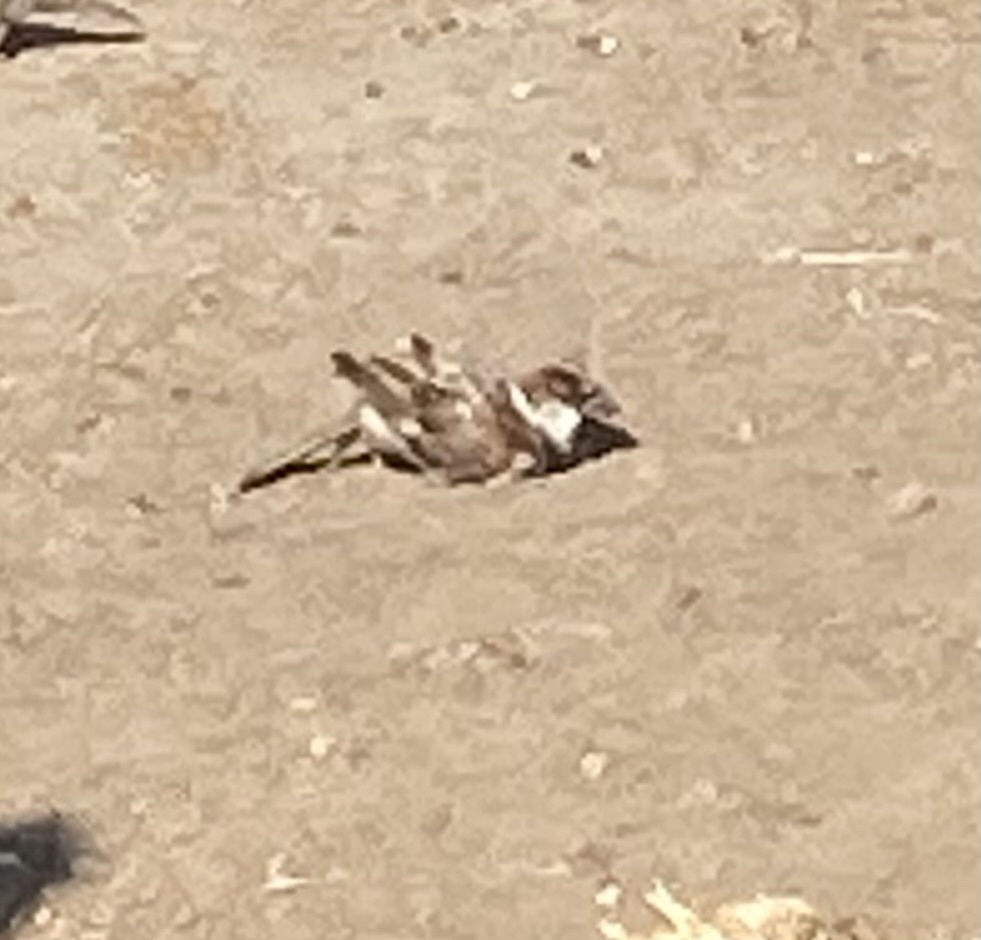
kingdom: Animalia
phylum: Chordata
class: Aves
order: Passeriformes
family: Passeridae
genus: Passer
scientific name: Passer domesticus
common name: House sparrow
